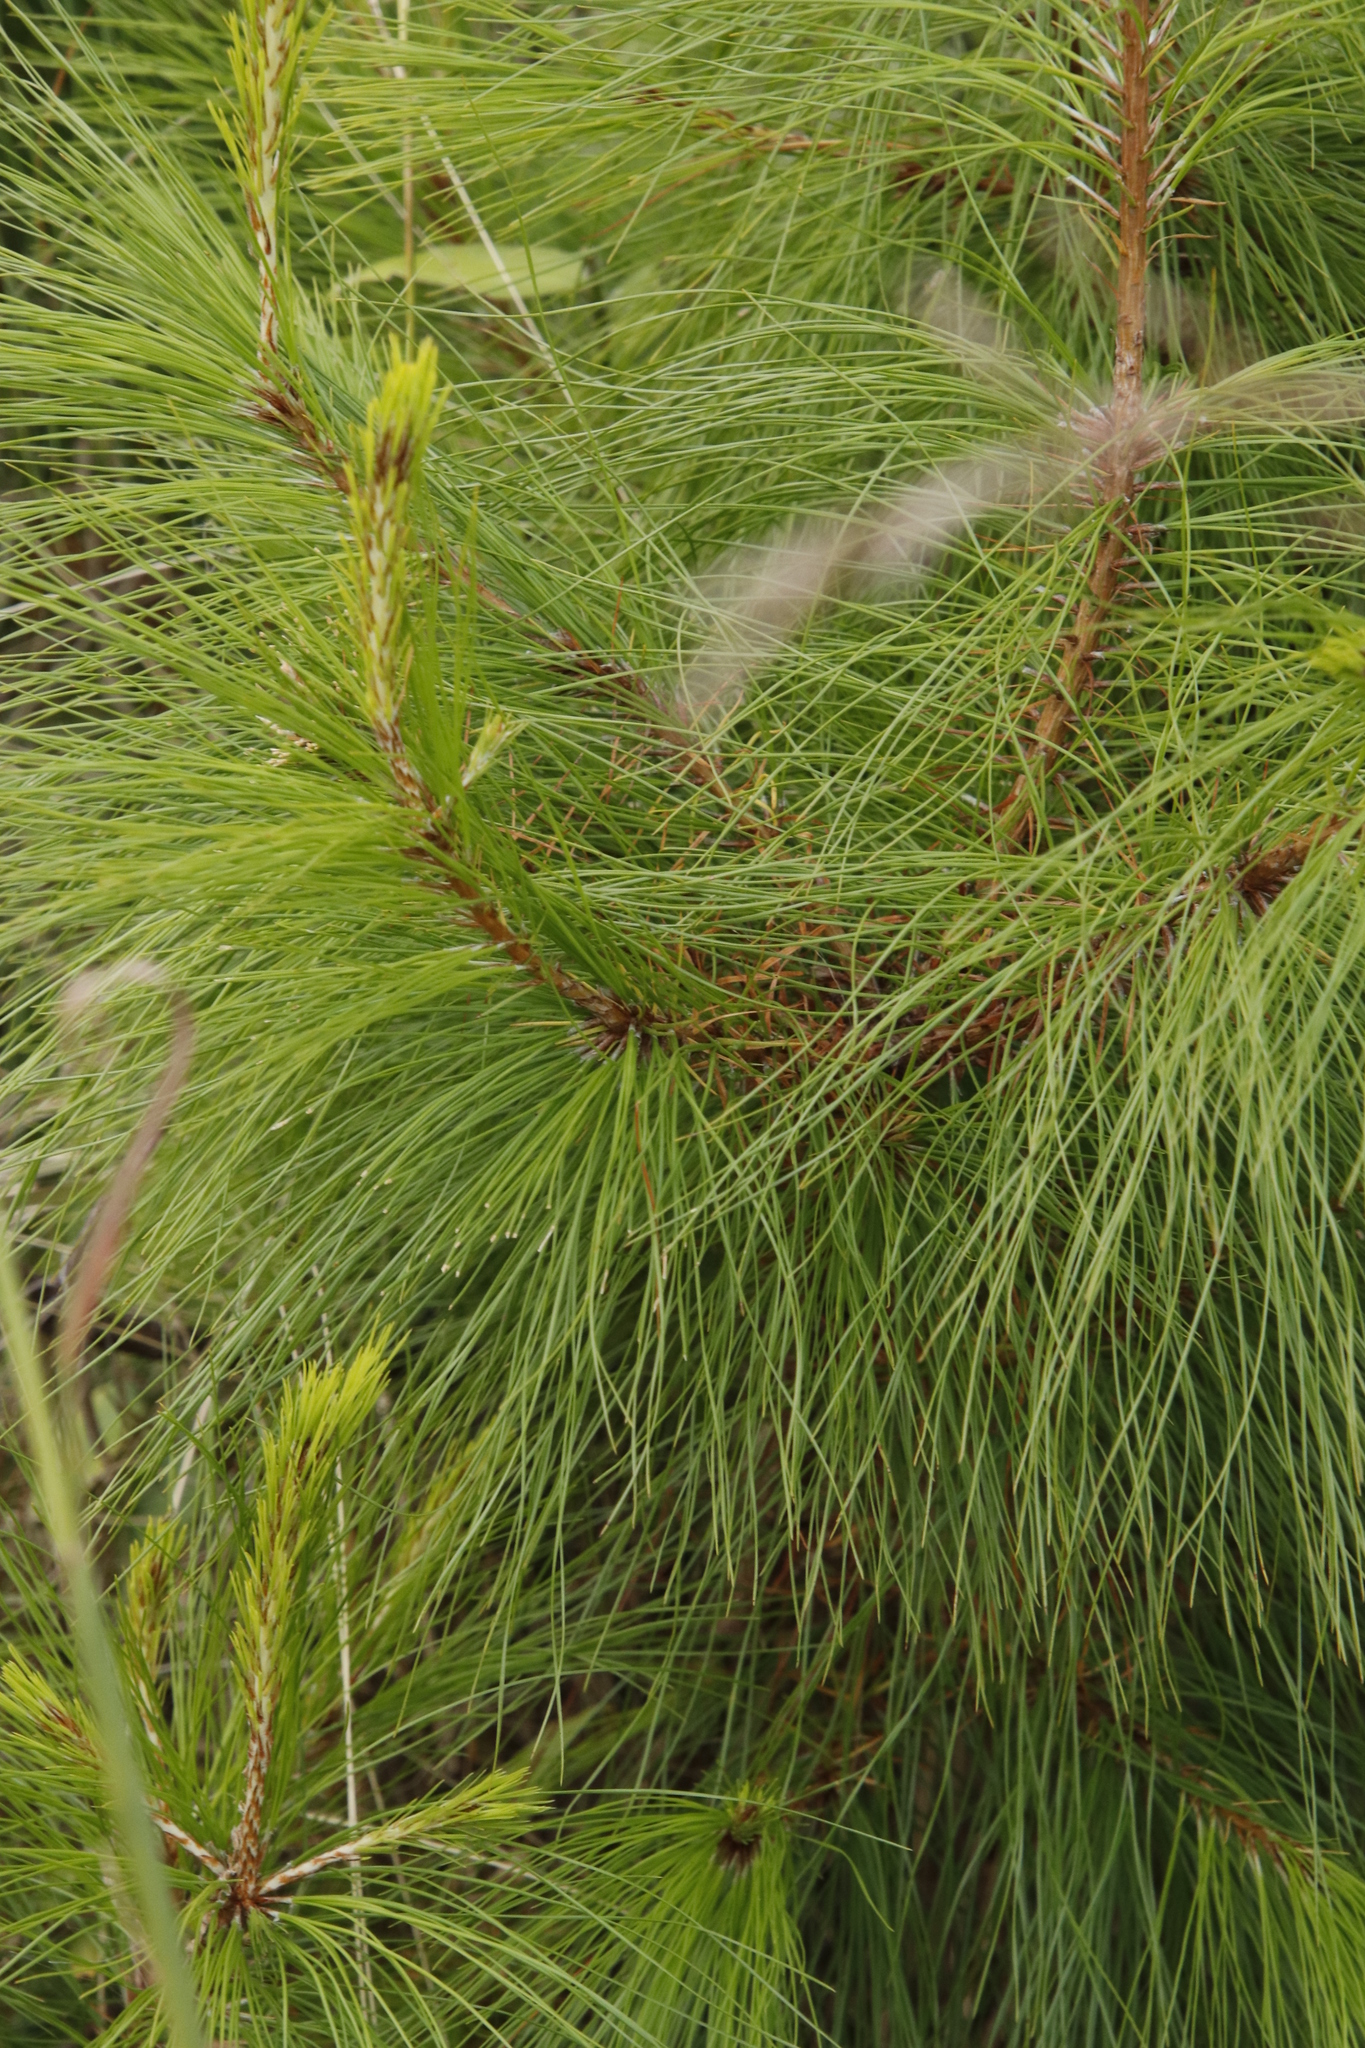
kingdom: Plantae
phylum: Tracheophyta
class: Pinopsida
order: Pinales
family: Pinaceae
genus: Pinus
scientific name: Pinus patula
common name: Mexican weeping pine
